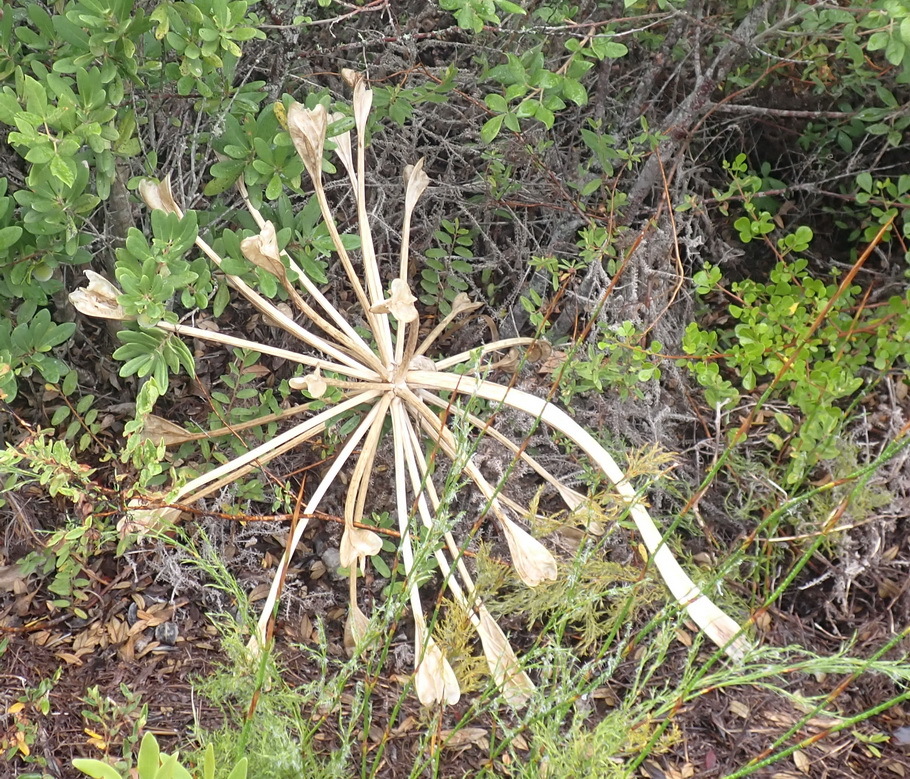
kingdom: Plantae
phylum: Tracheophyta
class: Liliopsida
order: Asparagales
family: Amaryllidaceae
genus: Brunsvigia
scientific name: Brunsvigia orientalis
